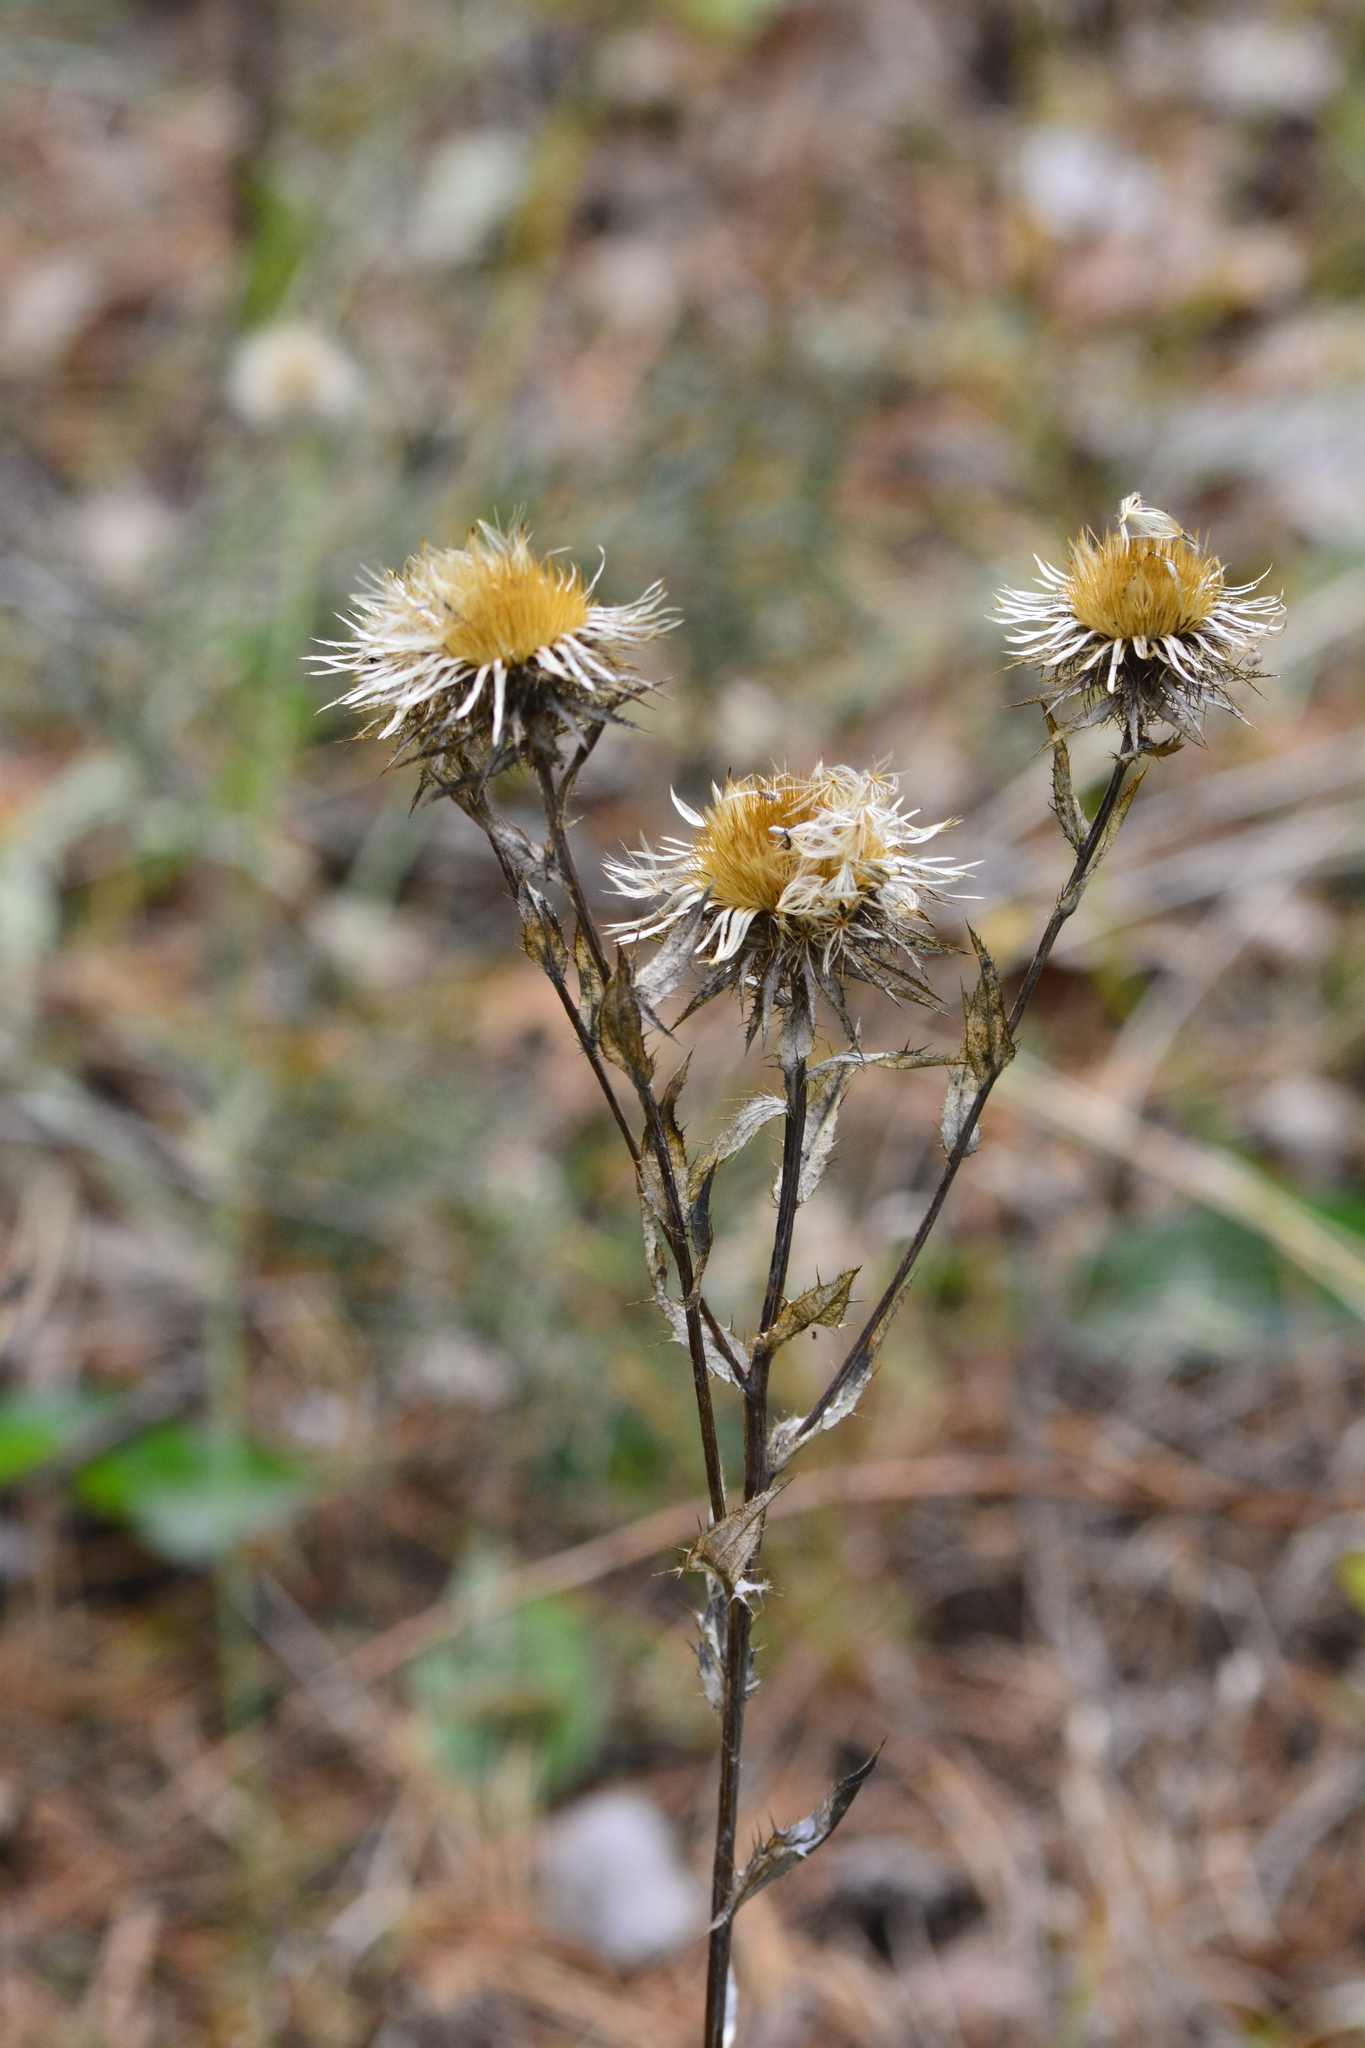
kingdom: Plantae
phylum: Tracheophyta
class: Magnoliopsida
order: Asterales
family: Asteraceae
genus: Carlina
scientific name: Carlina biebersteinii
